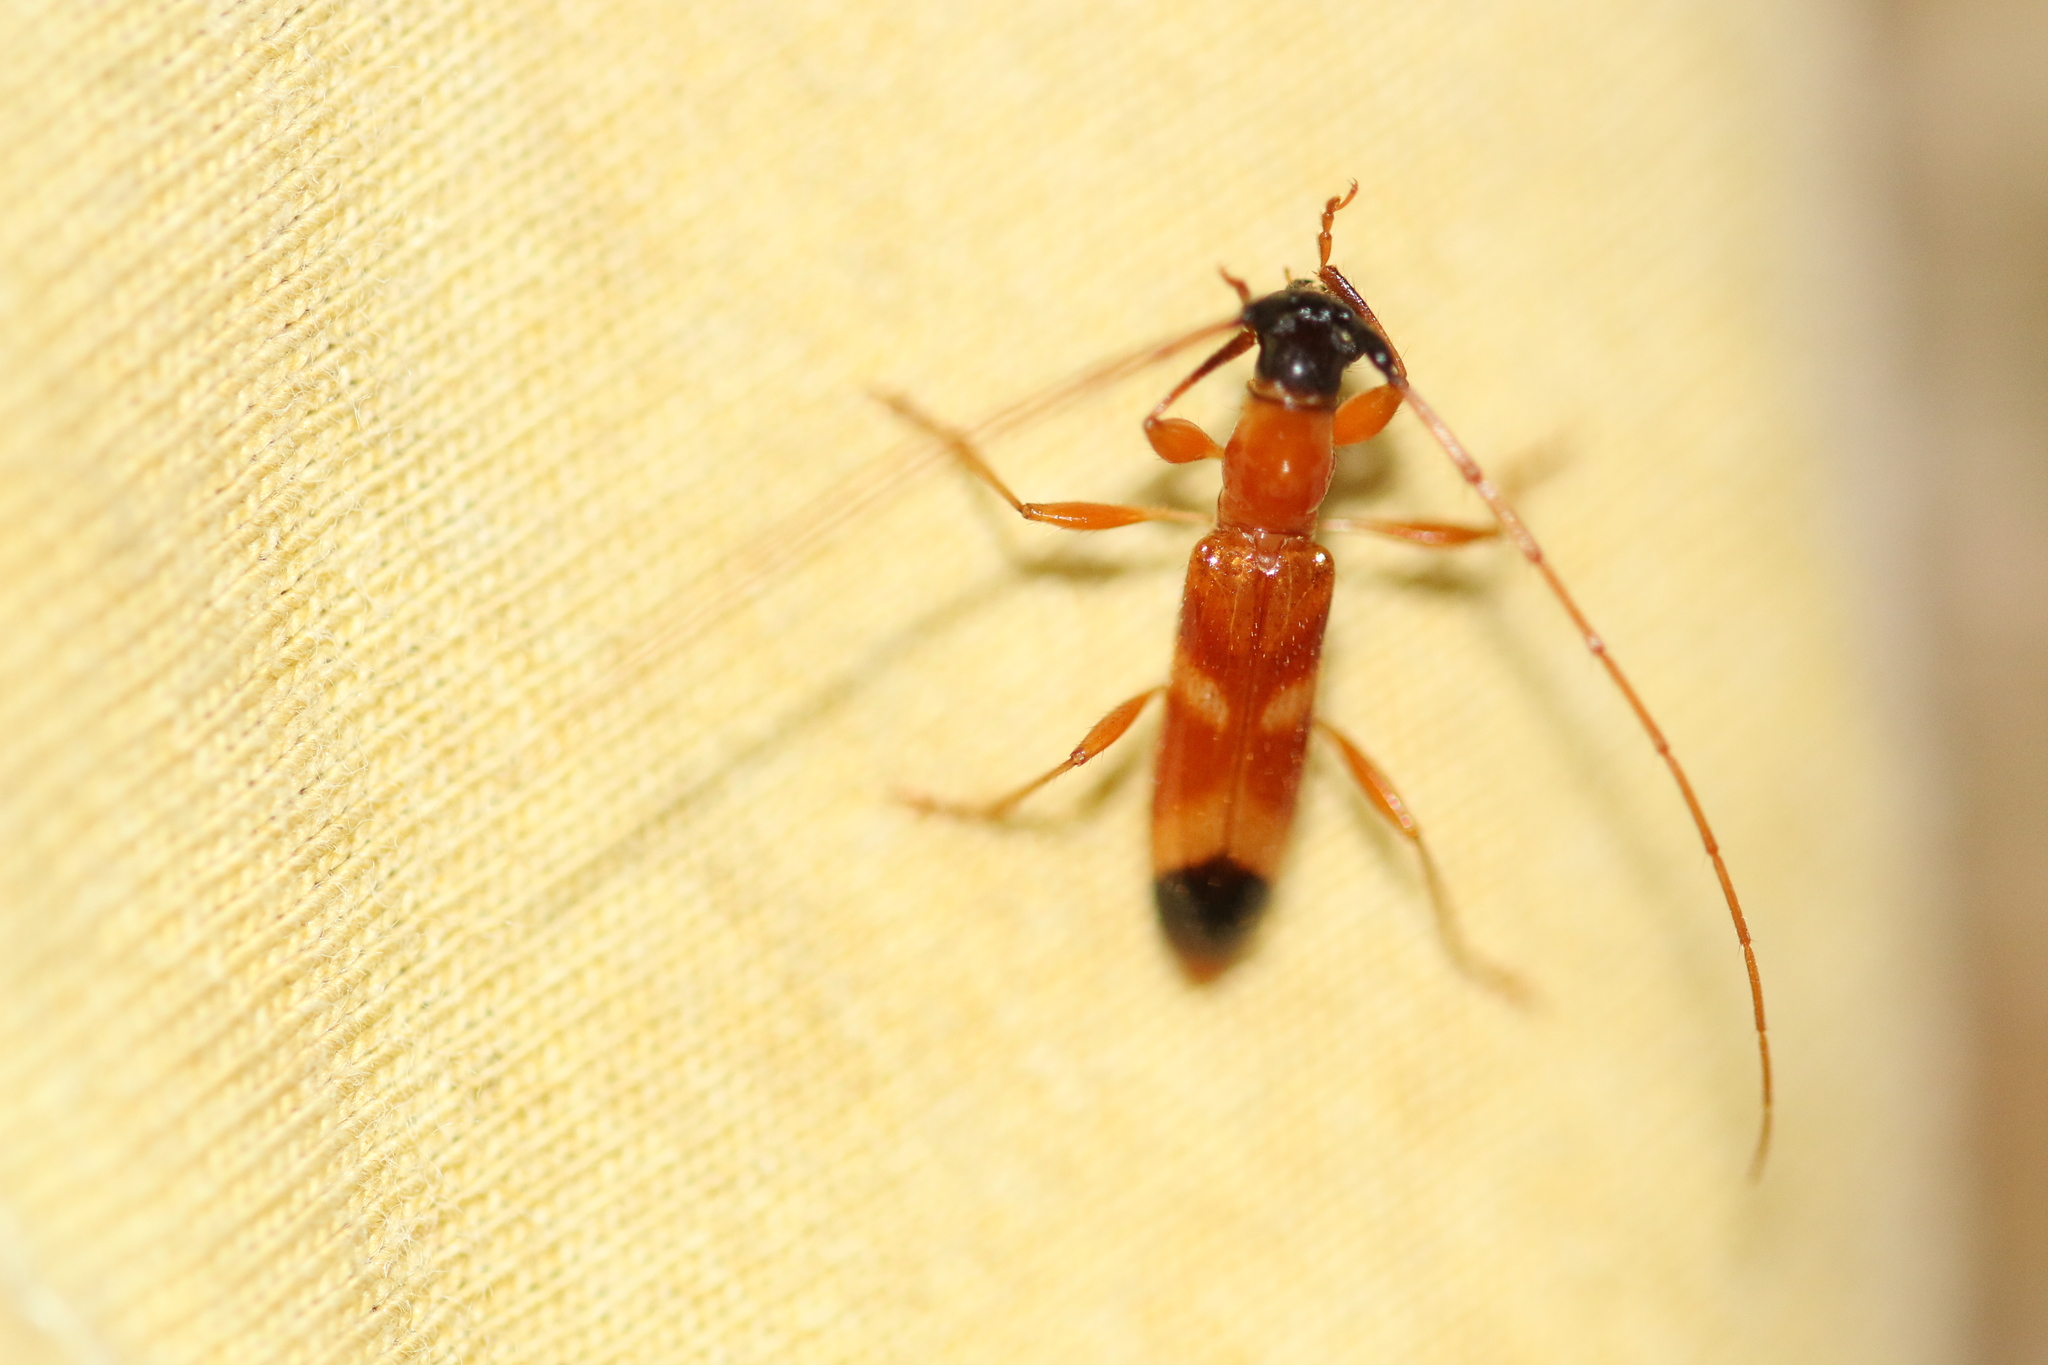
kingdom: Animalia
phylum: Arthropoda
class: Insecta
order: Coleoptera
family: Cerambycidae
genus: Pygmodeon
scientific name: Pygmodeon ditelum
